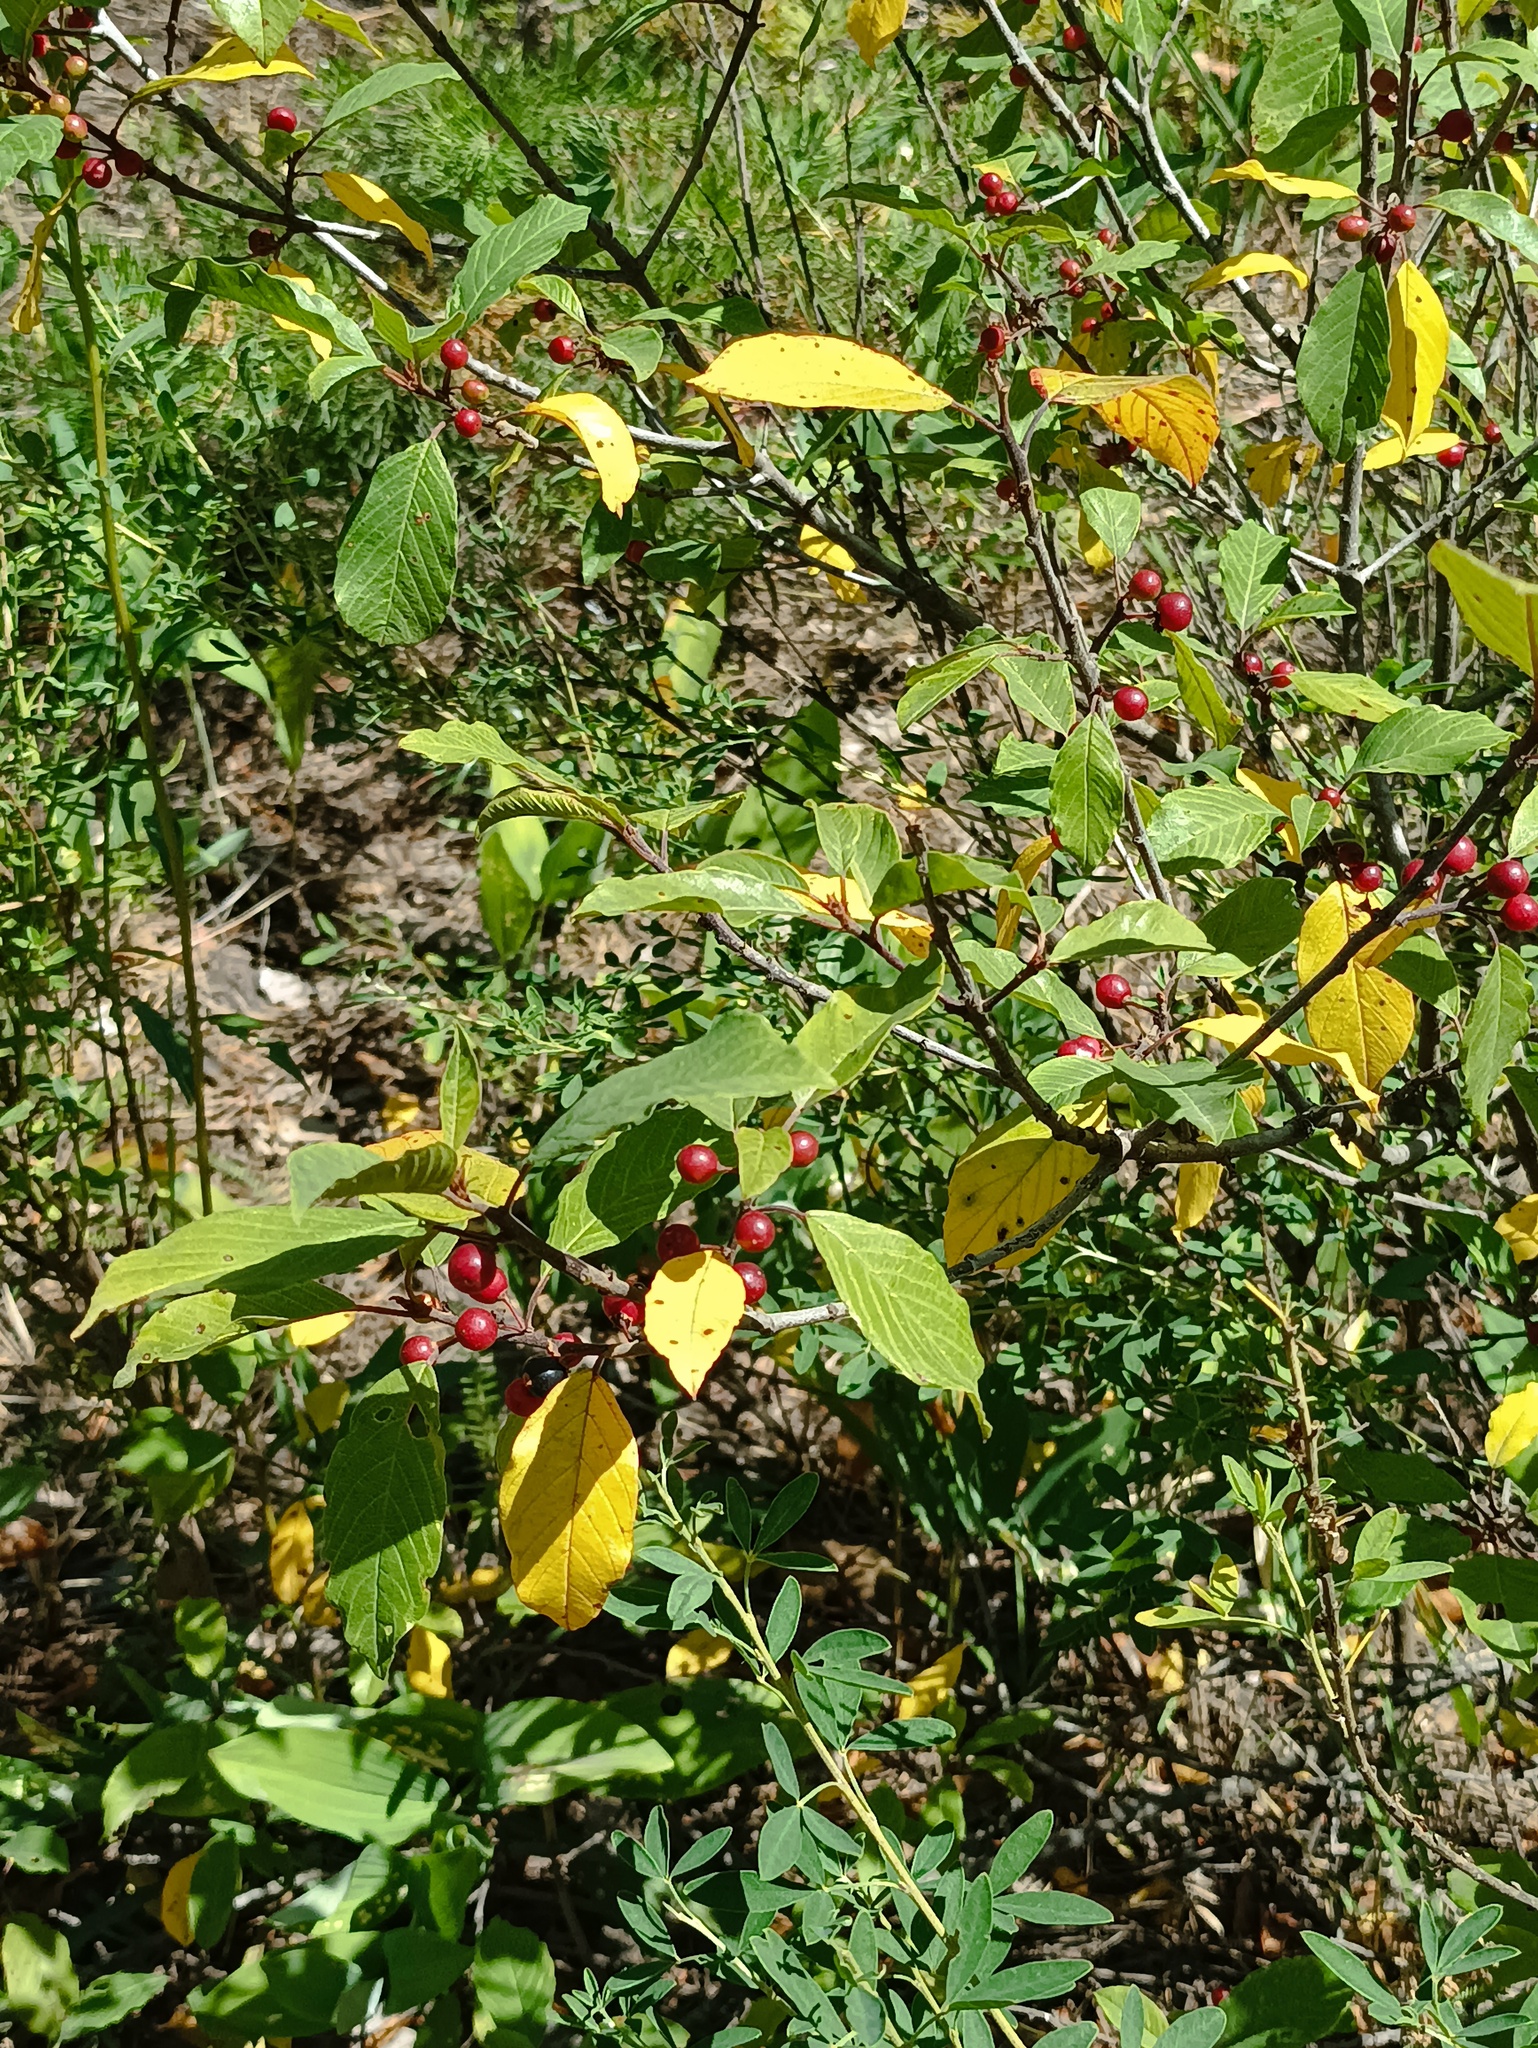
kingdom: Plantae
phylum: Tracheophyta
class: Magnoliopsida
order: Rosales
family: Rhamnaceae
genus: Frangula
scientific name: Frangula alnus
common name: Alder buckthorn
